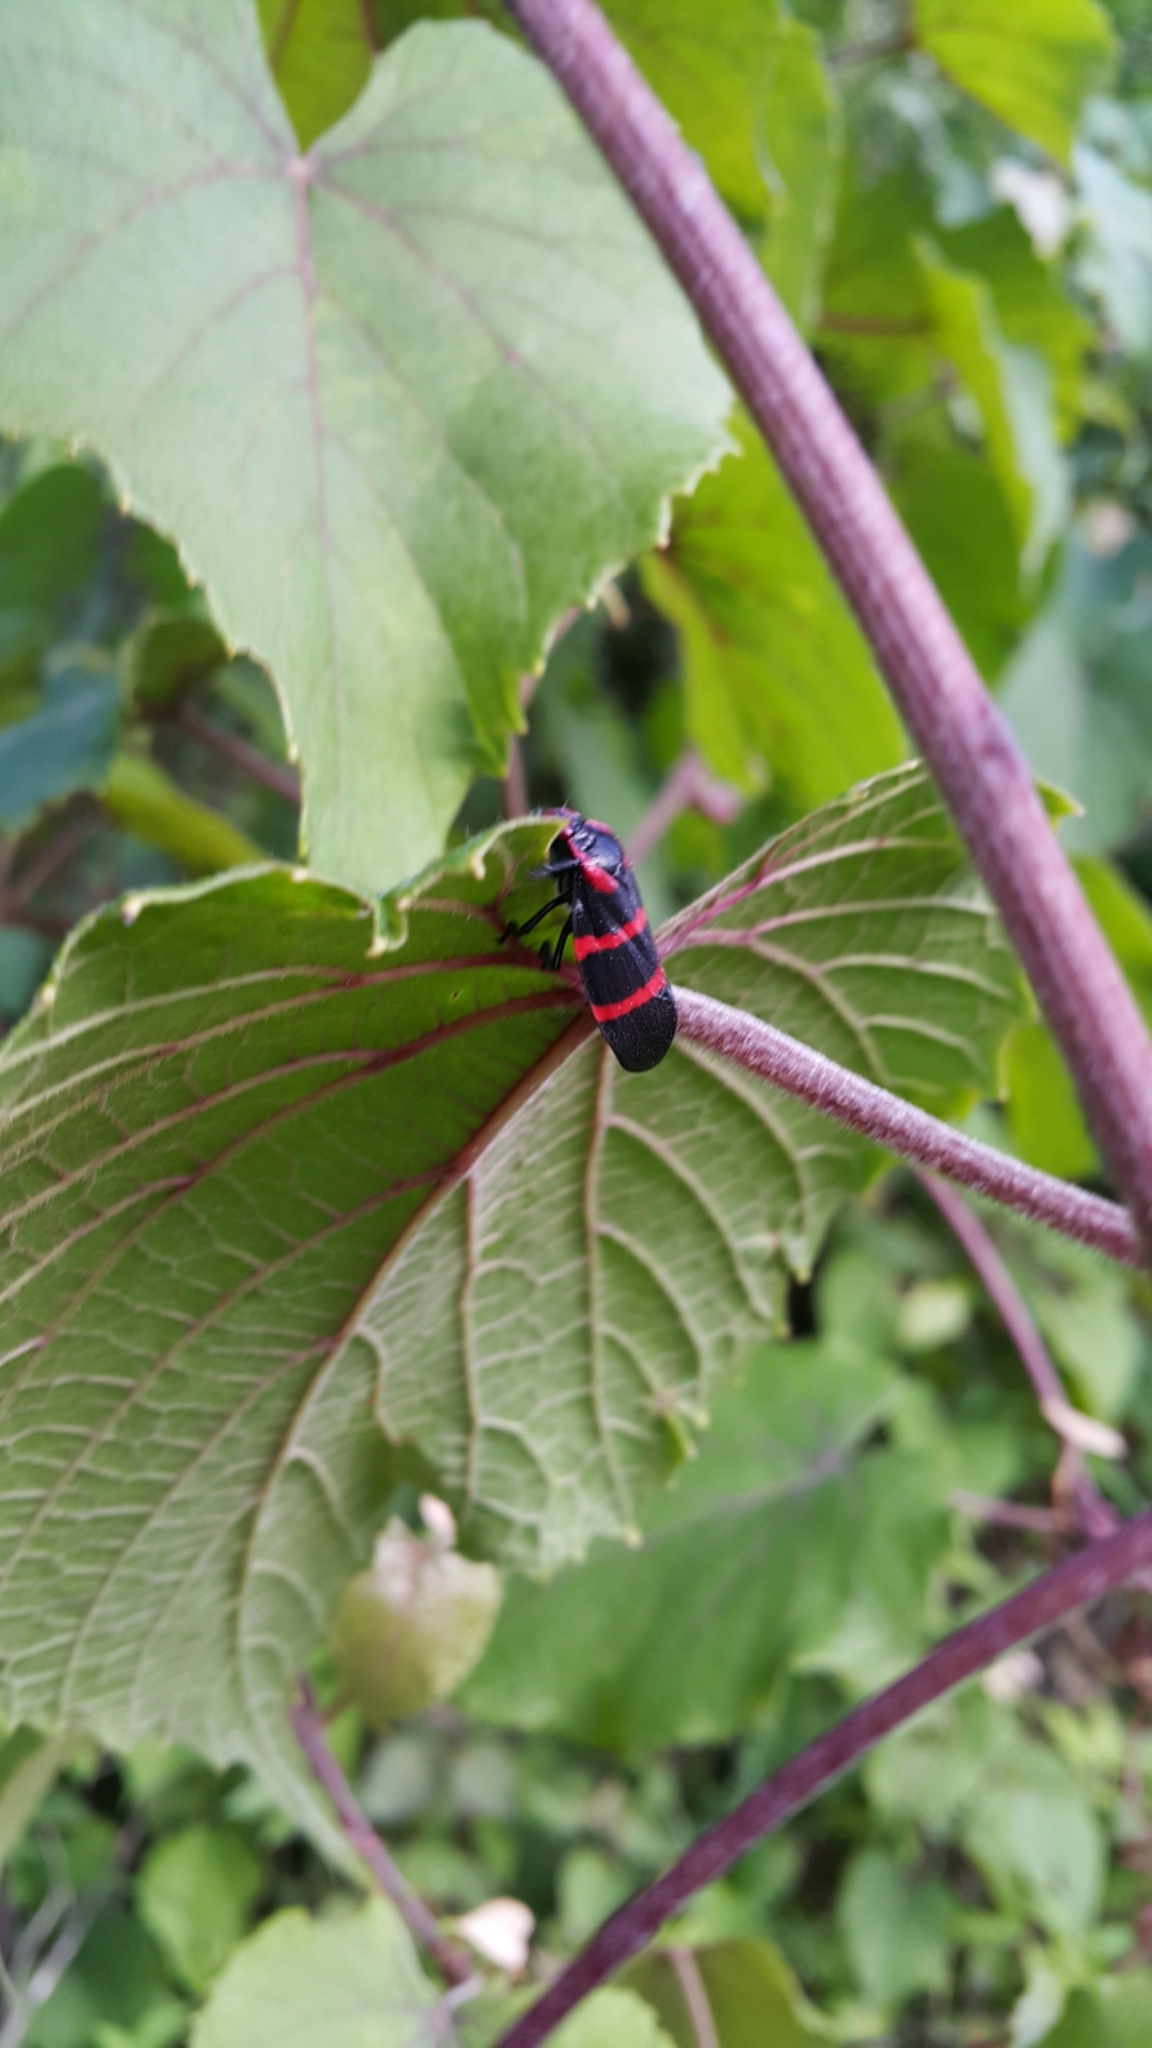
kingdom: Animalia
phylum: Arthropoda
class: Insecta
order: Hemiptera
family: Cercopidae
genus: Huaina
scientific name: Huaina inca
